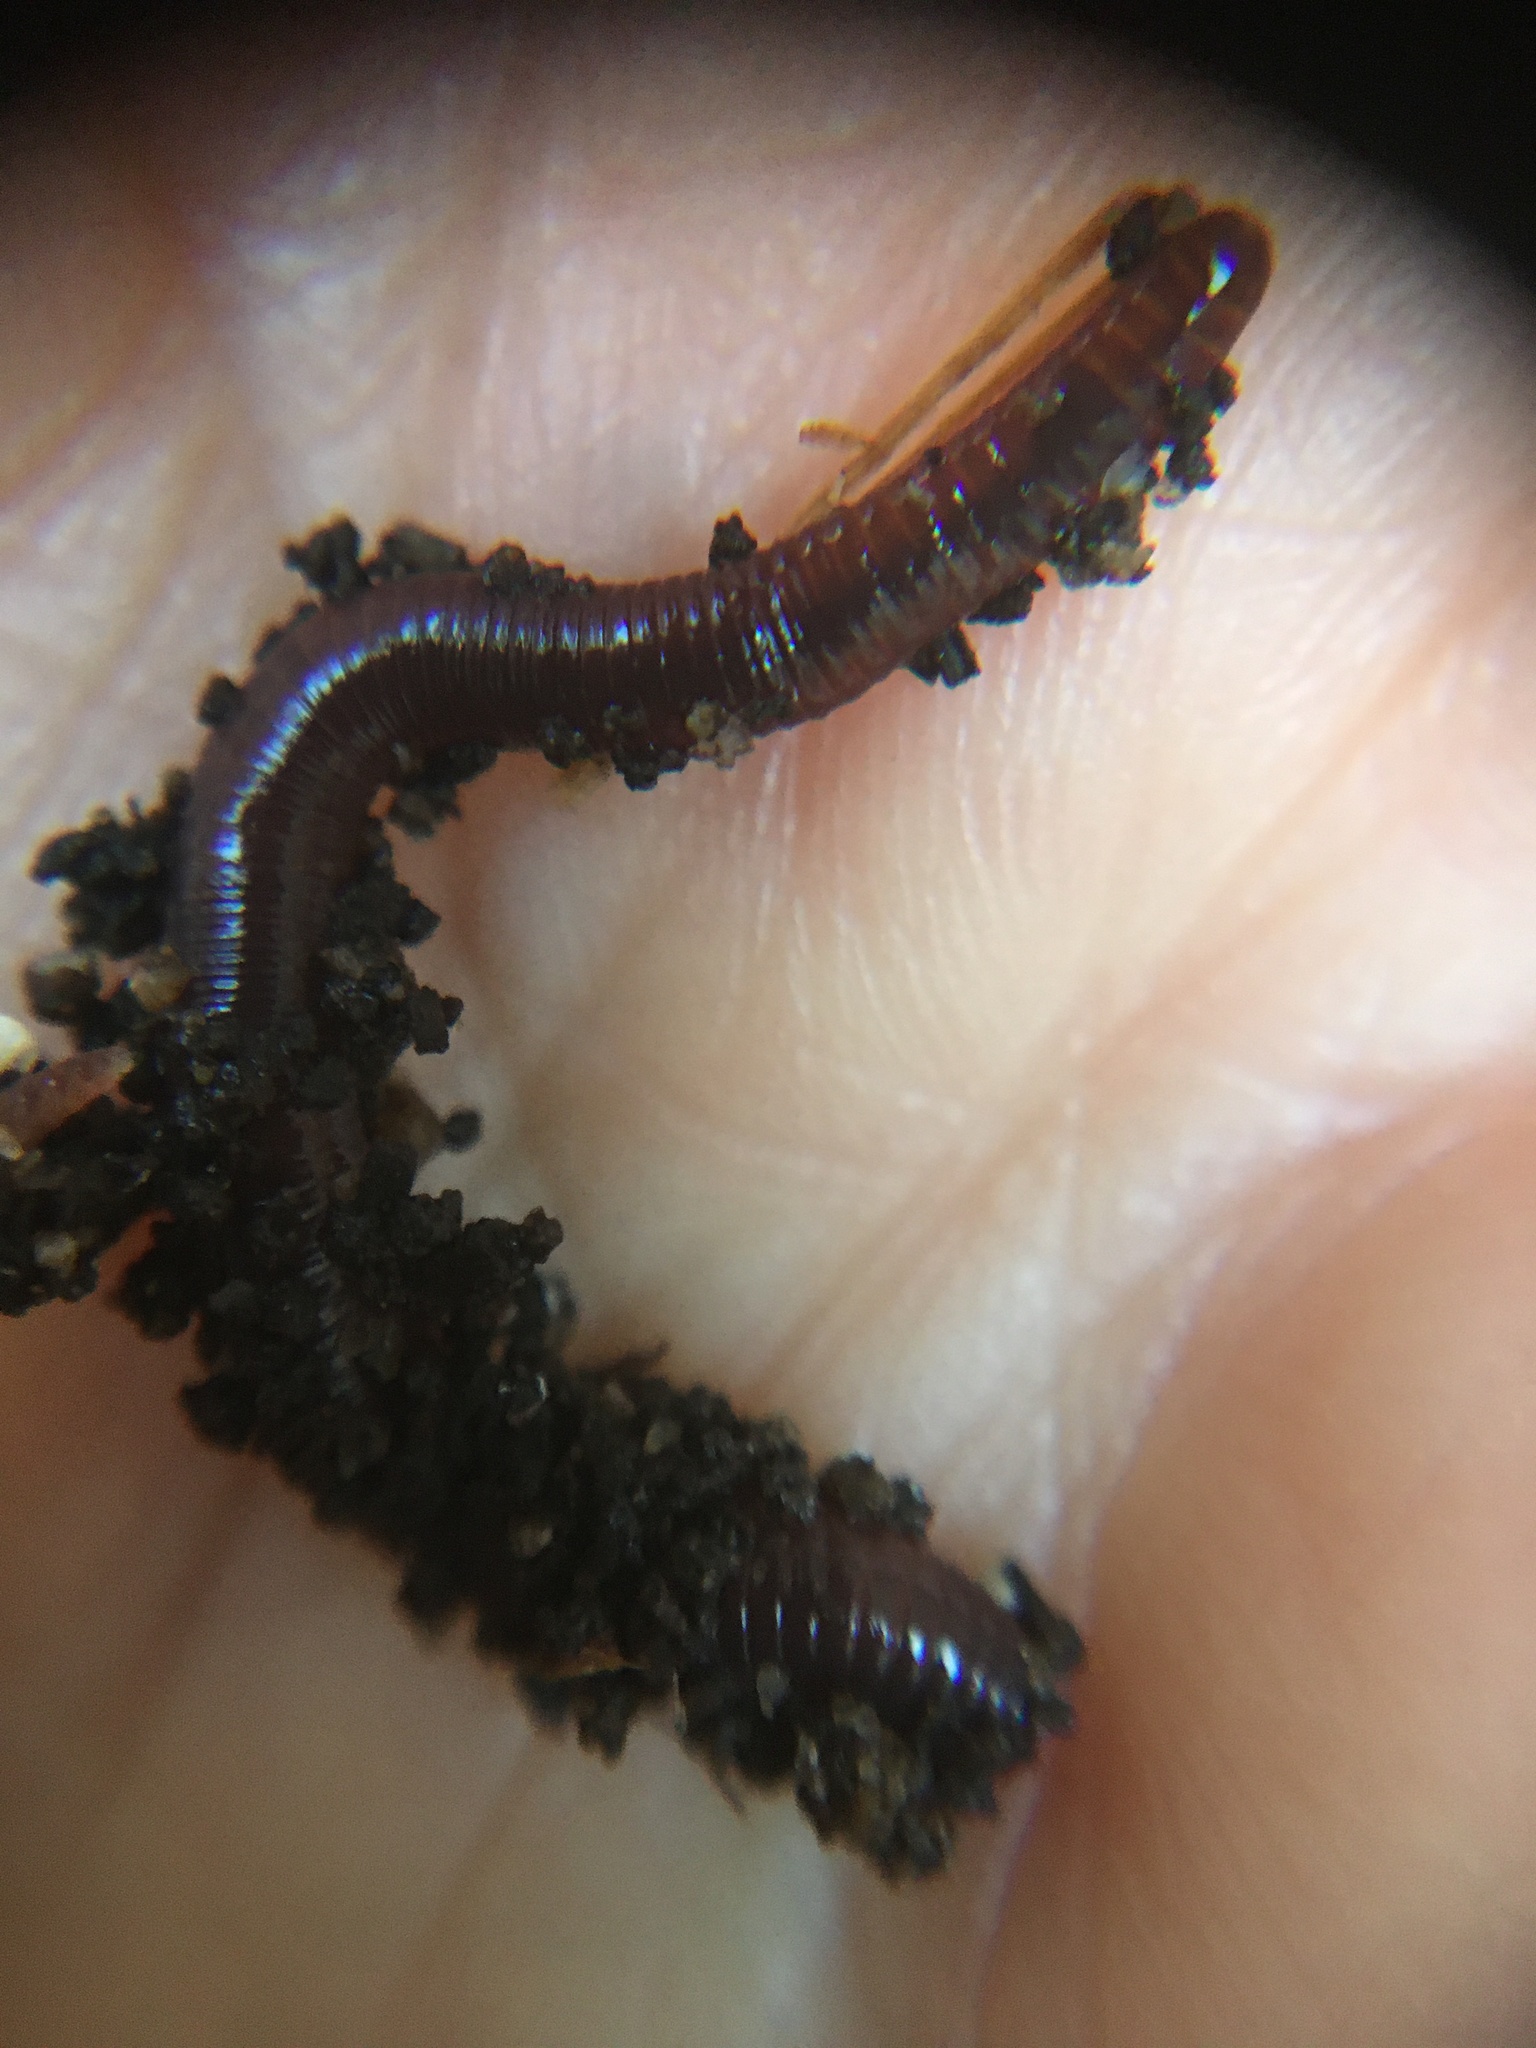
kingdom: Animalia
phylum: Annelida
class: Clitellata
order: Crassiclitellata
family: Lumbricidae
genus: Lumbricus
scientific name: Lumbricus terrestris
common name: Common earthworm
